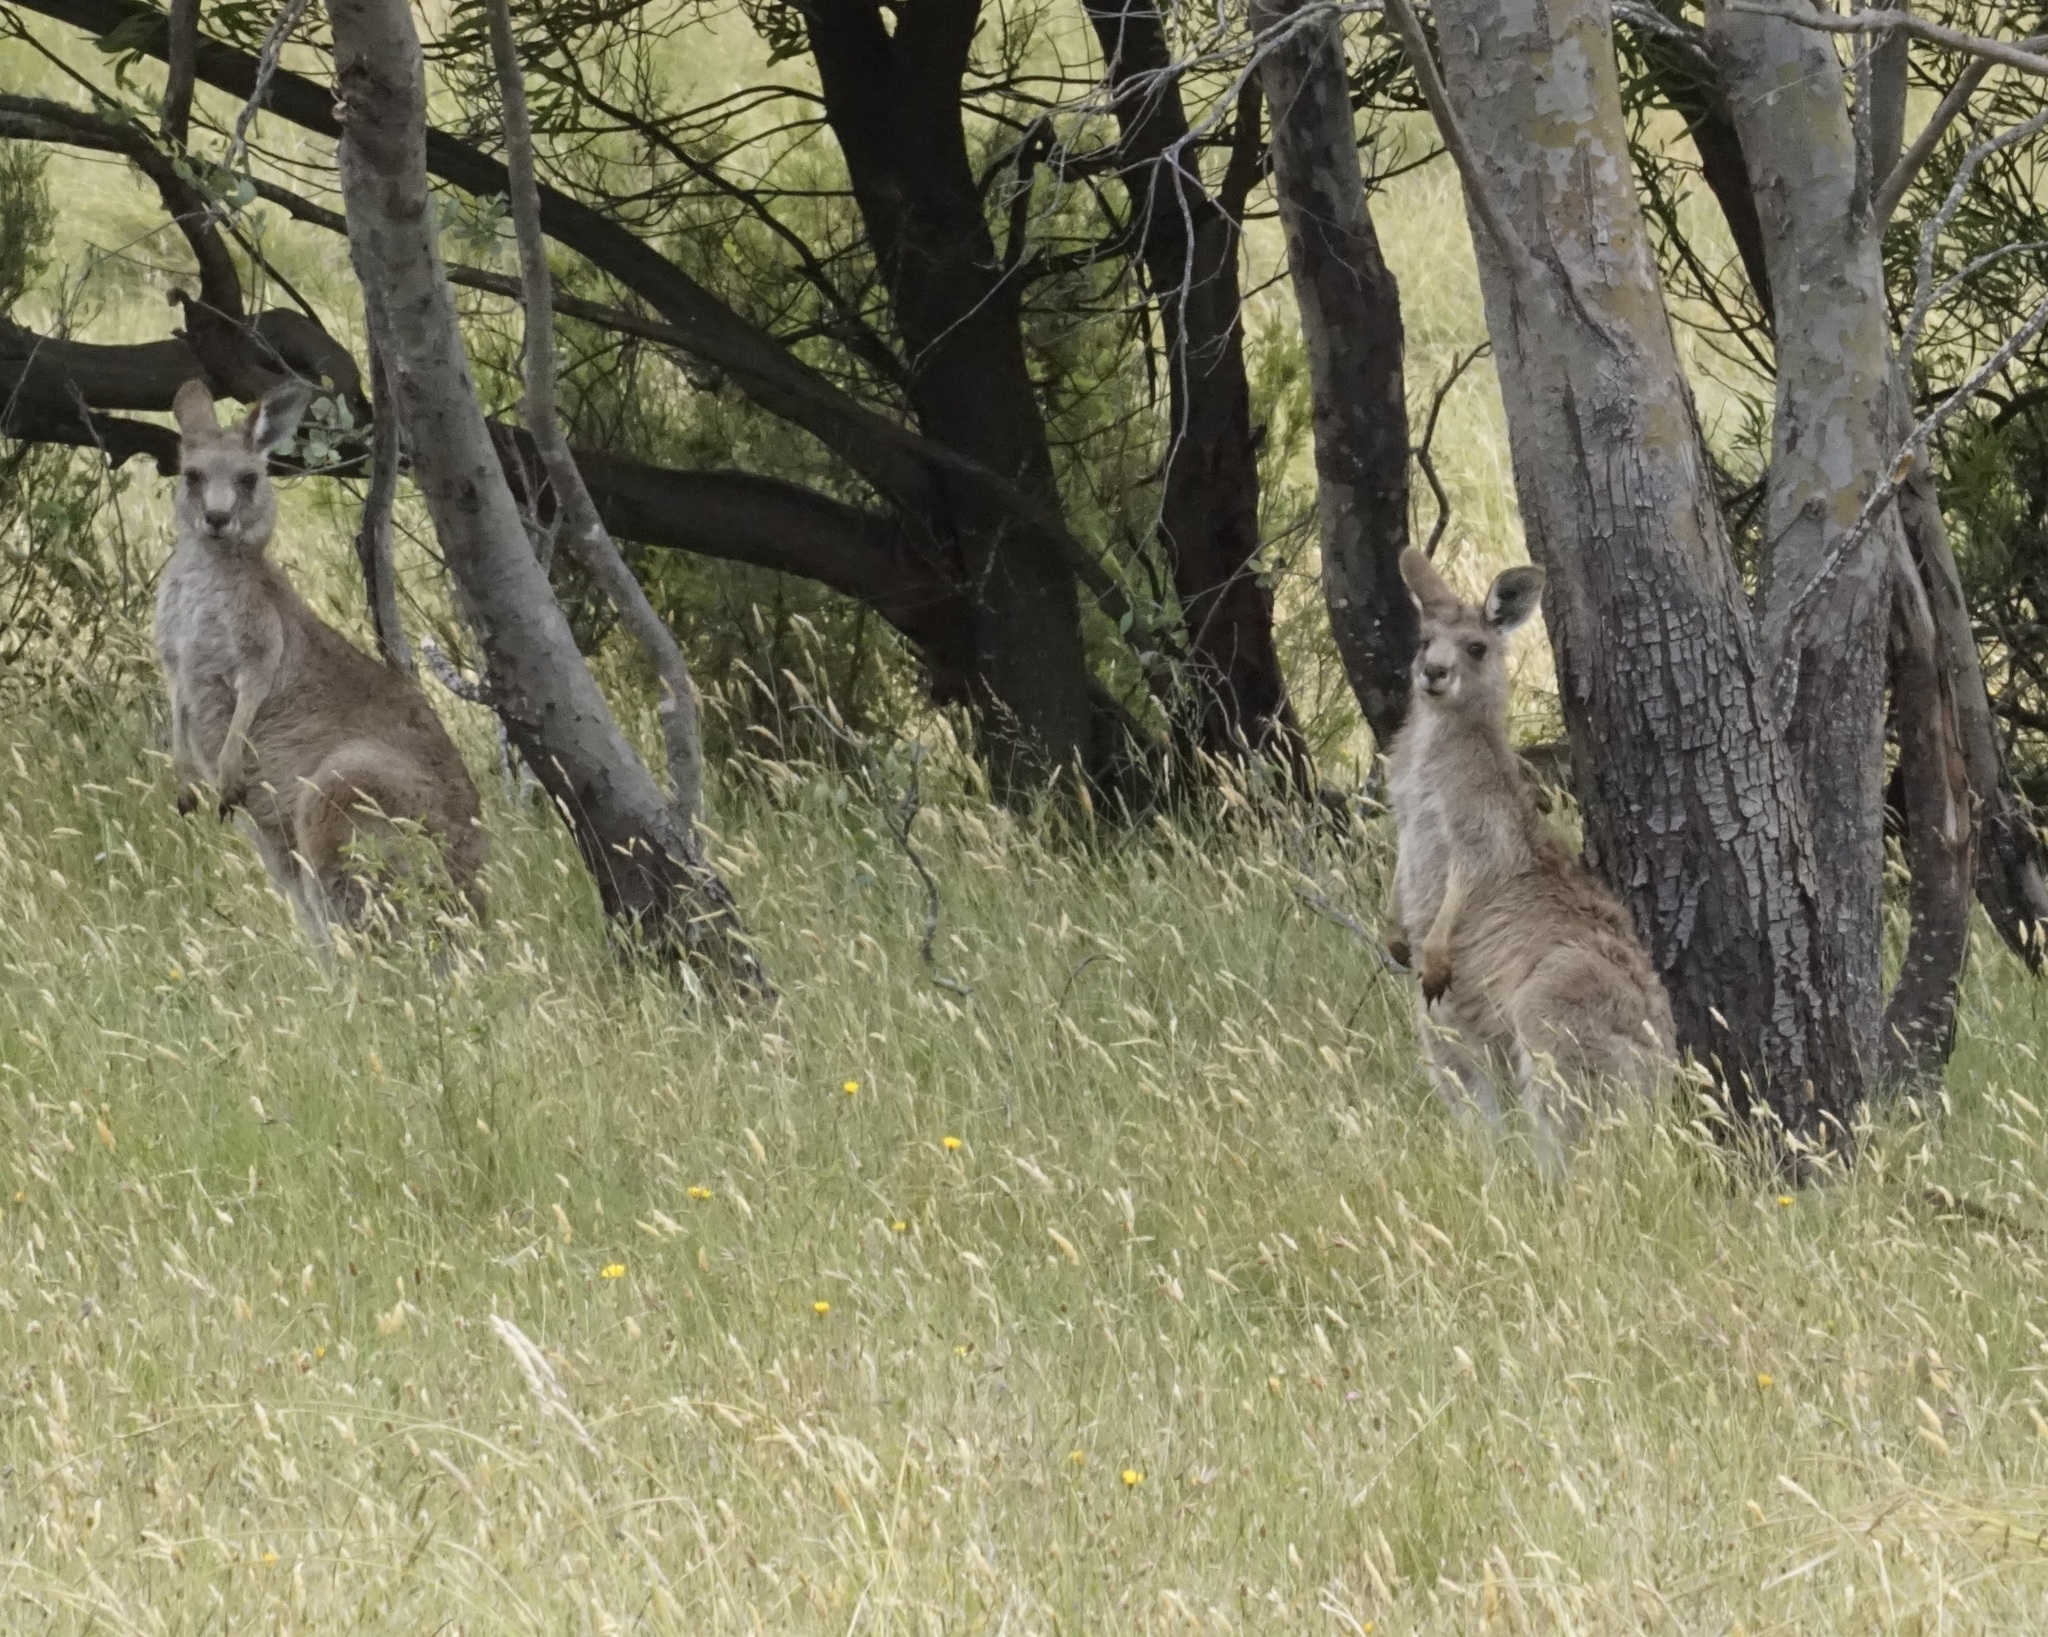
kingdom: Animalia
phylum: Chordata
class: Mammalia
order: Diprotodontia
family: Macropodidae
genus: Macropus
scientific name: Macropus giganteus
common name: Eastern grey kangaroo
